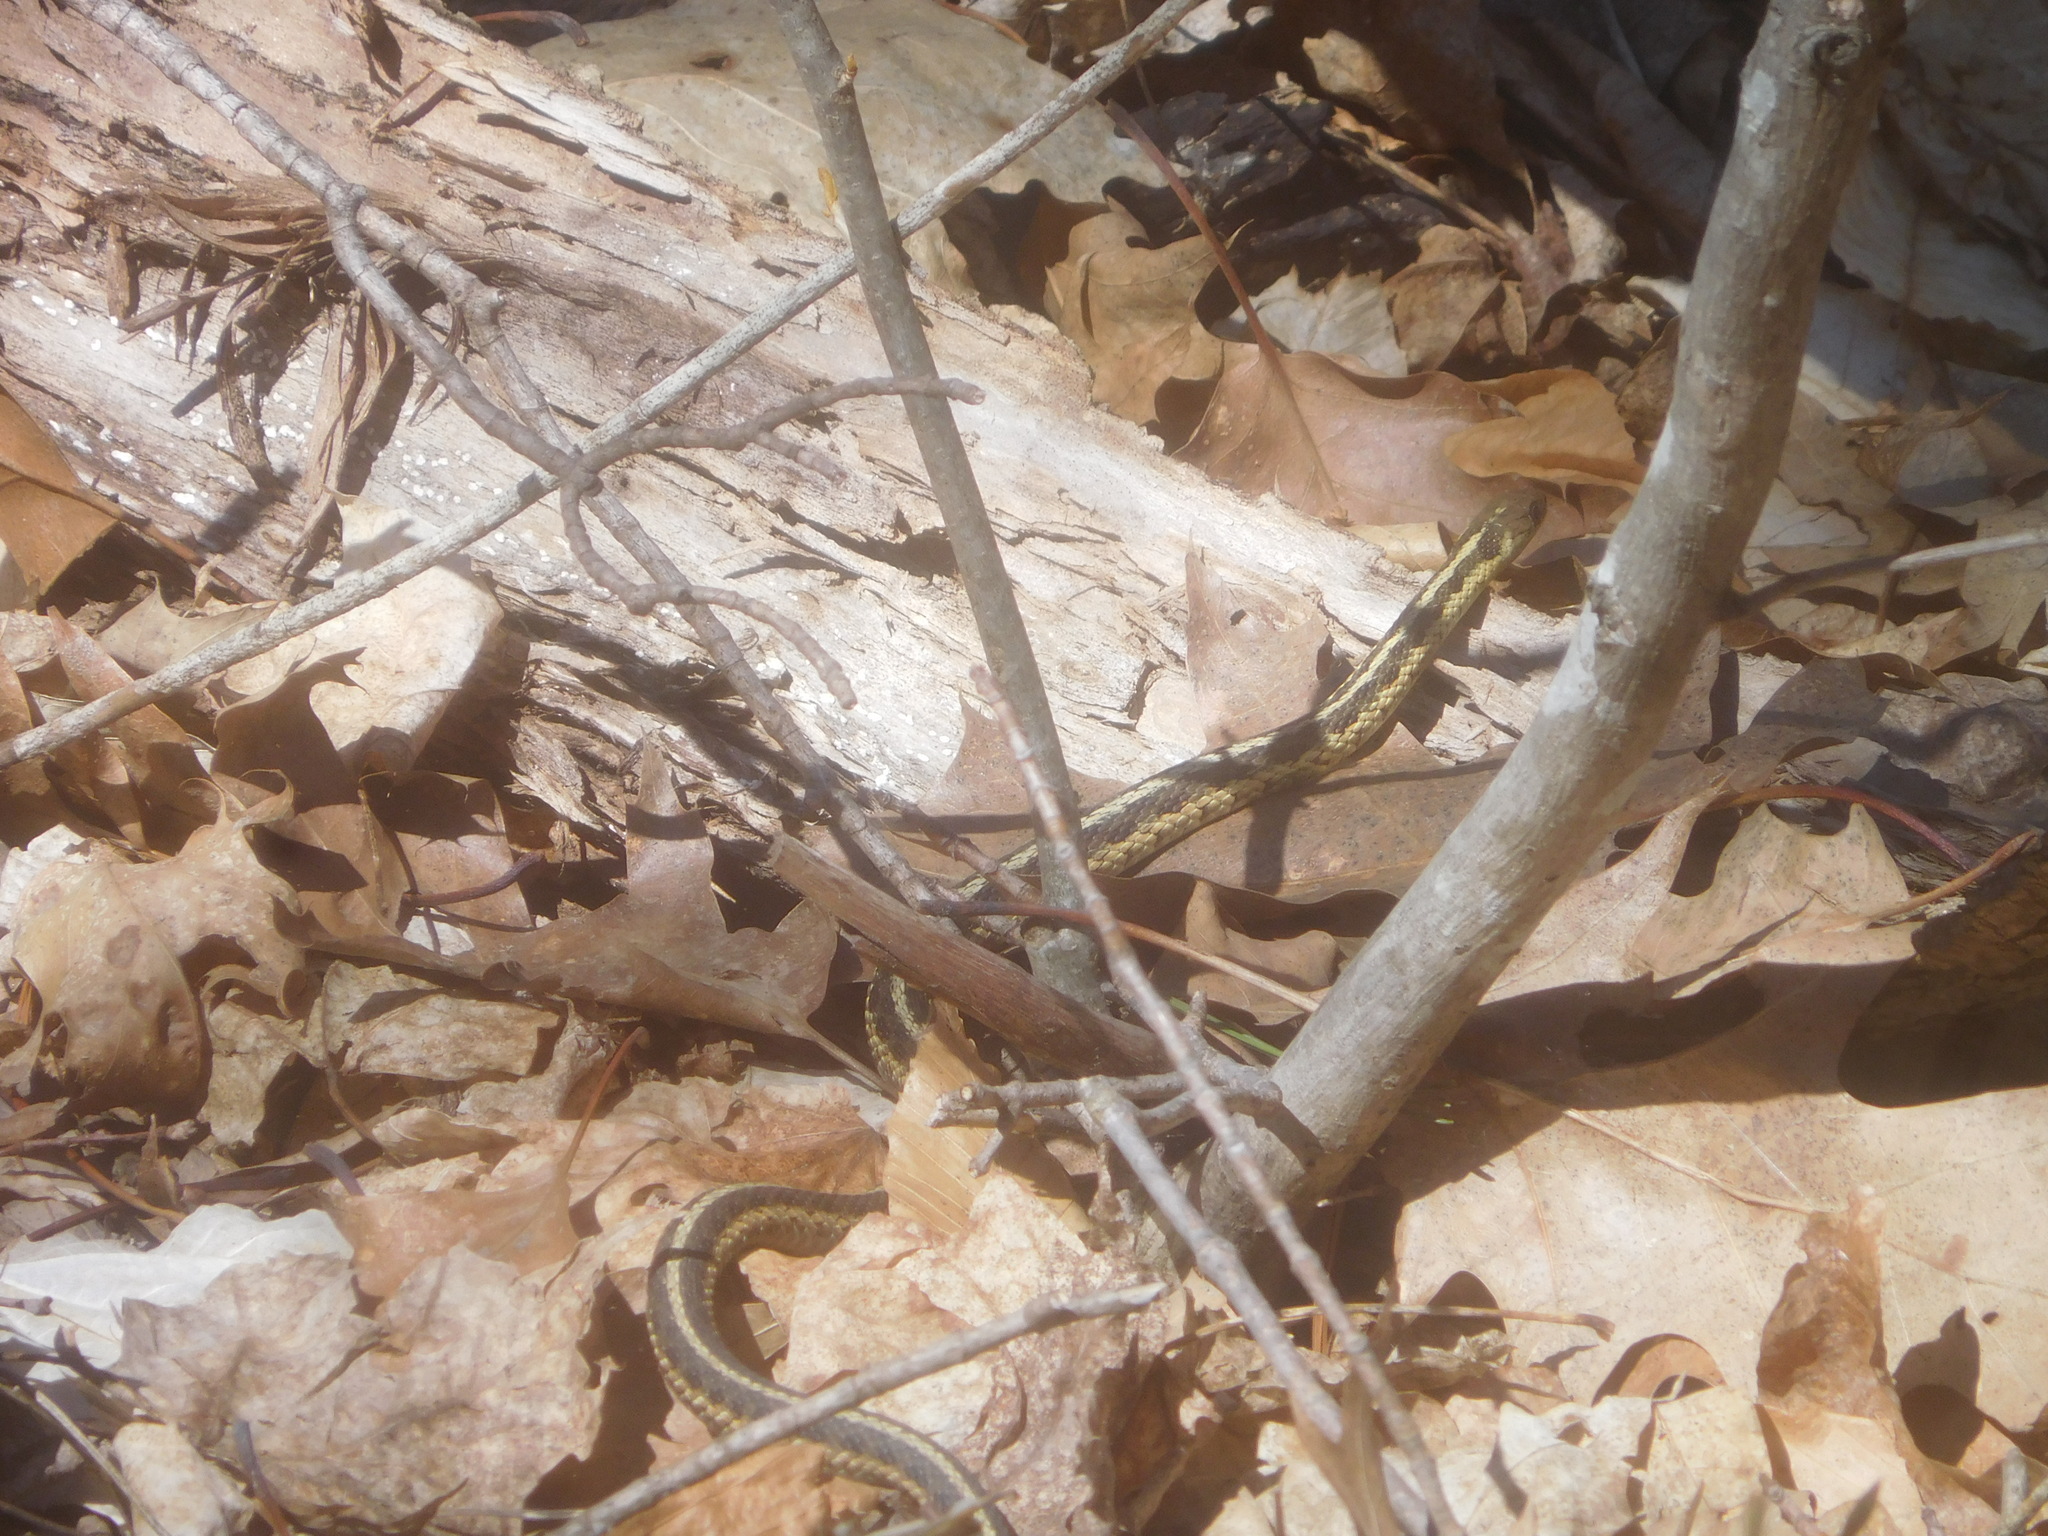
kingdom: Animalia
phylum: Chordata
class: Squamata
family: Colubridae
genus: Thamnophis
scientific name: Thamnophis sirtalis
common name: Common garter snake
